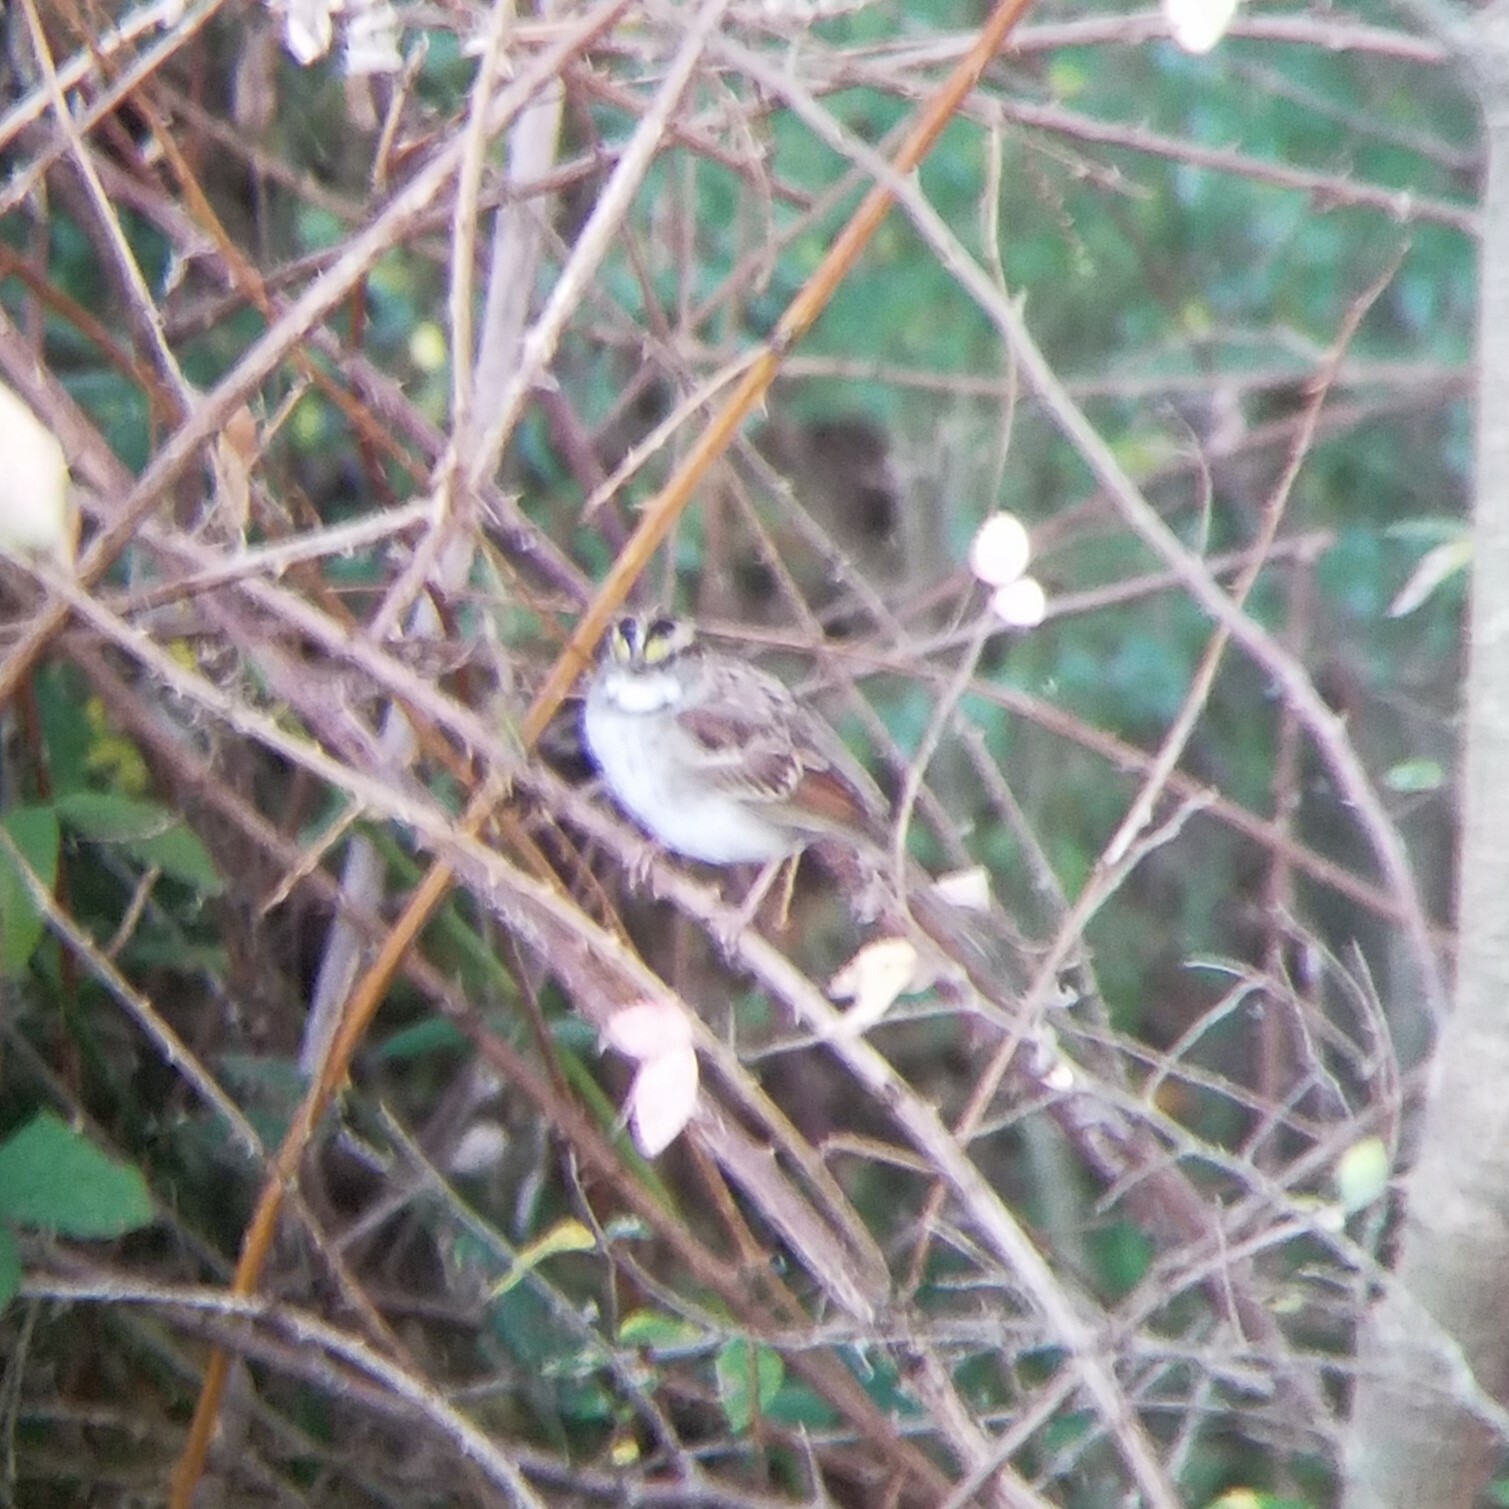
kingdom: Animalia
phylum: Chordata
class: Aves
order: Passeriformes
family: Passerellidae
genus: Zonotrichia
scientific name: Zonotrichia albicollis
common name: White-throated sparrow
